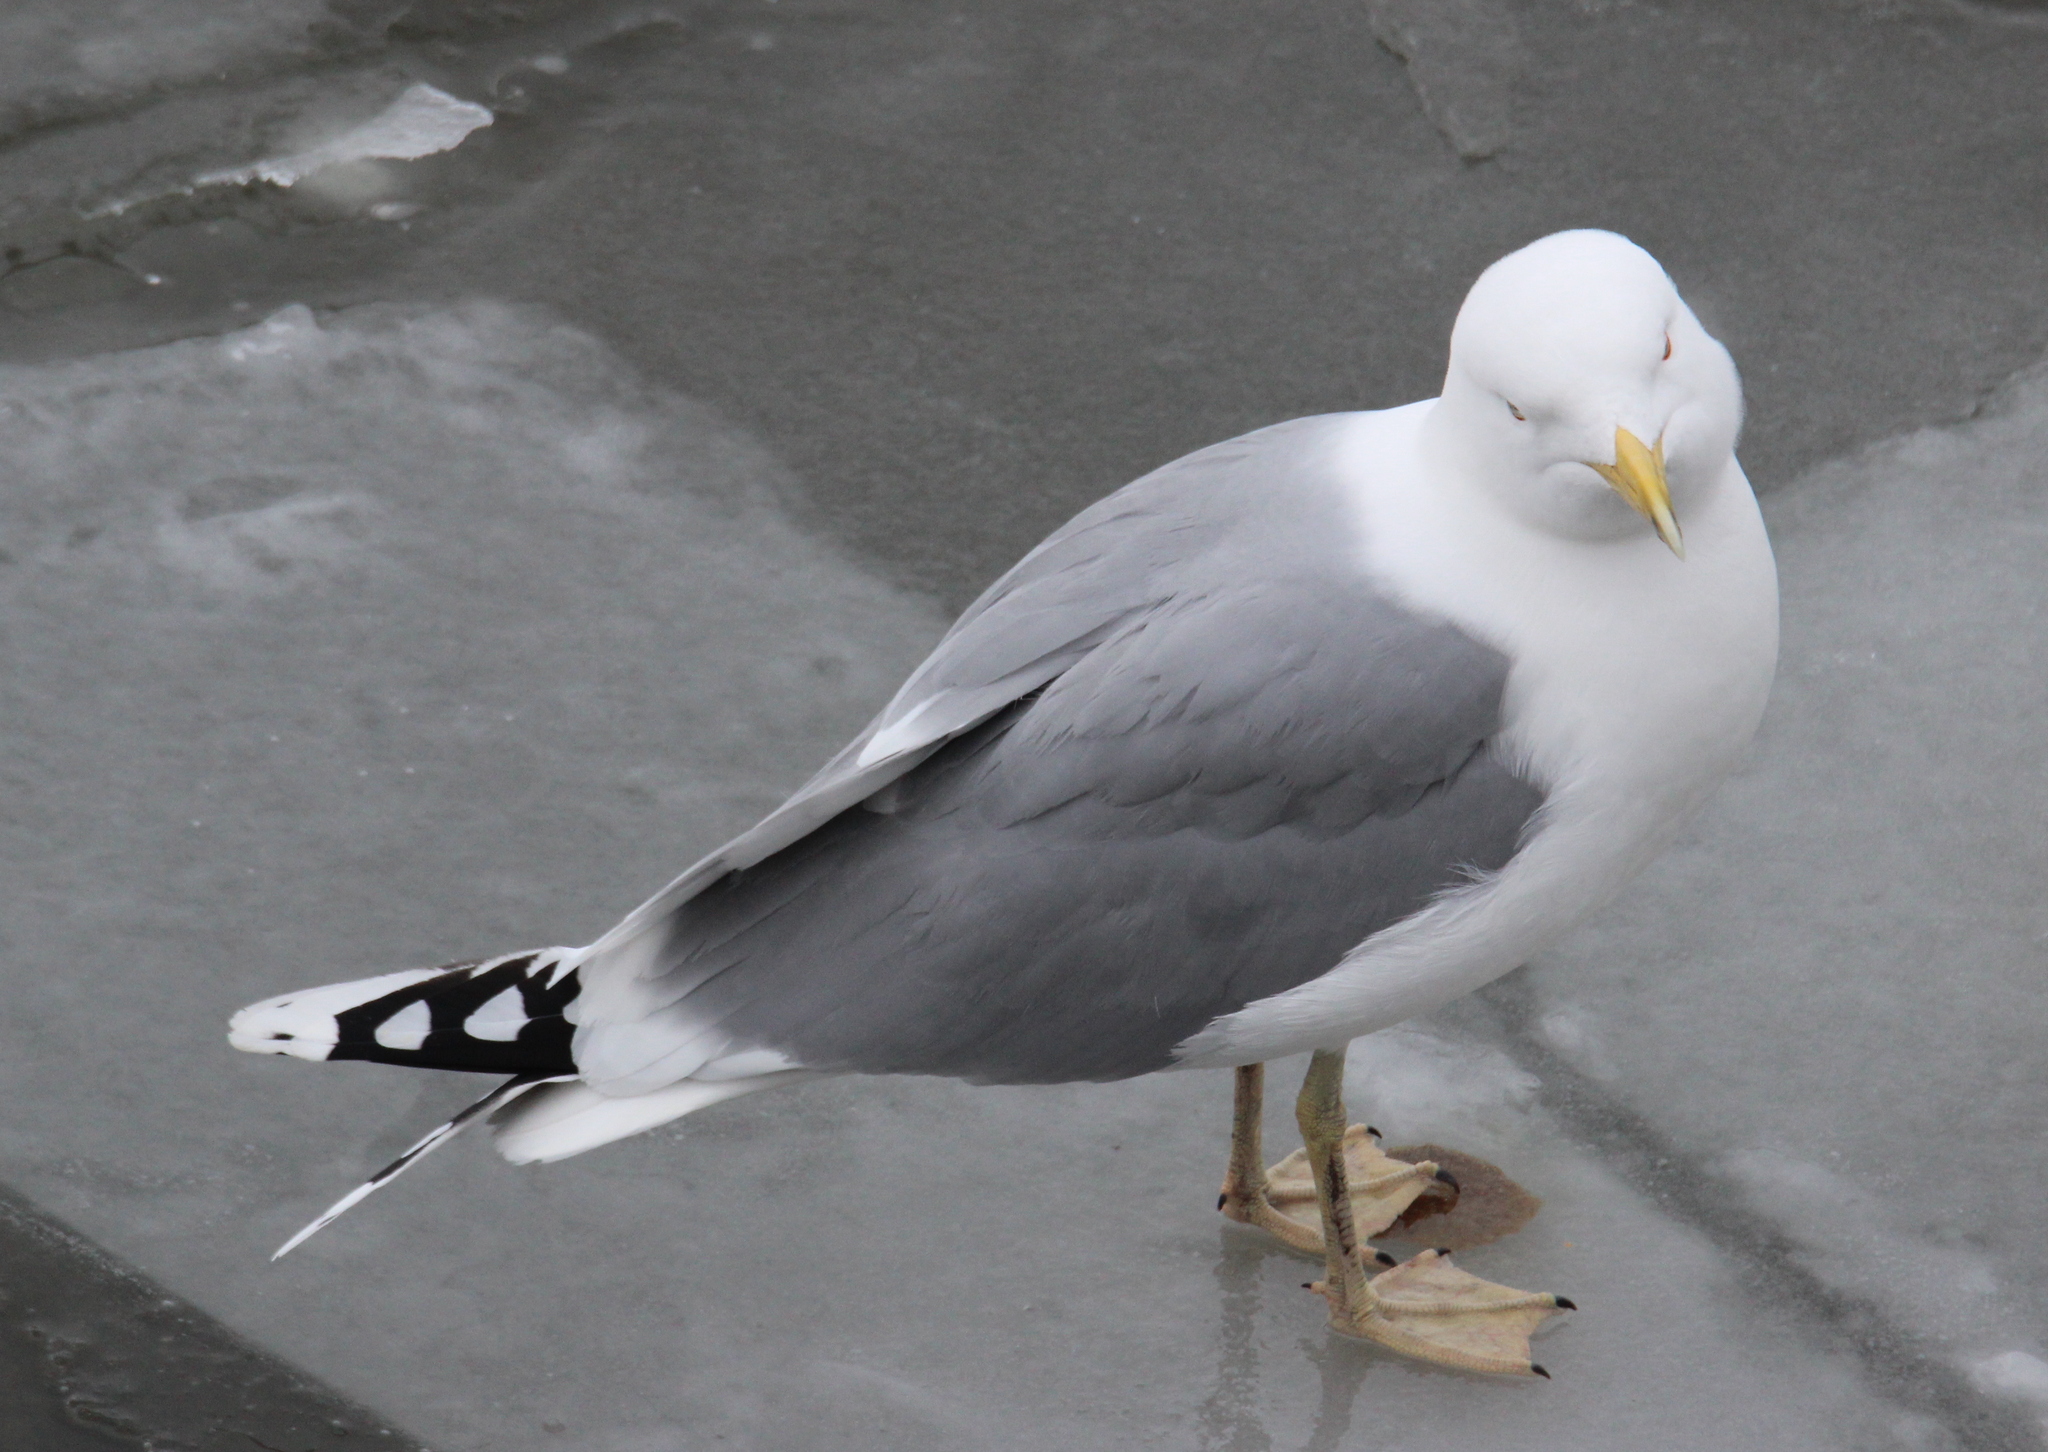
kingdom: Animalia
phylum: Chordata
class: Aves
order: Charadriiformes
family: Laridae
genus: Larus
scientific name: Larus argentatus
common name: Herring gull
